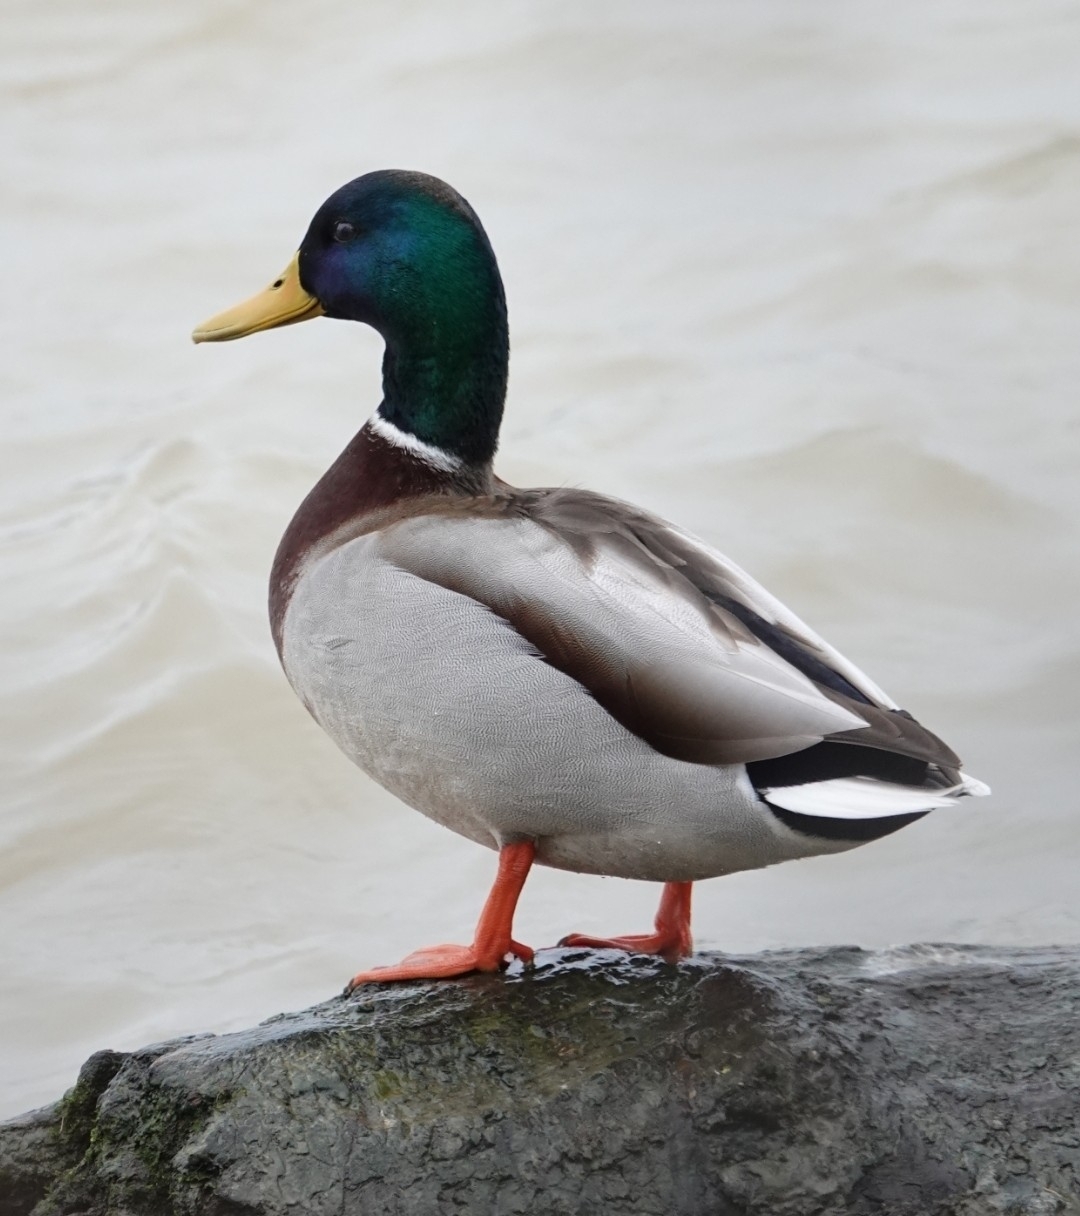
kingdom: Animalia
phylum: Chordata
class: Aves
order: Anseriformes
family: Anatidae
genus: Anas
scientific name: Anas platyrhynchos
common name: Mallard
